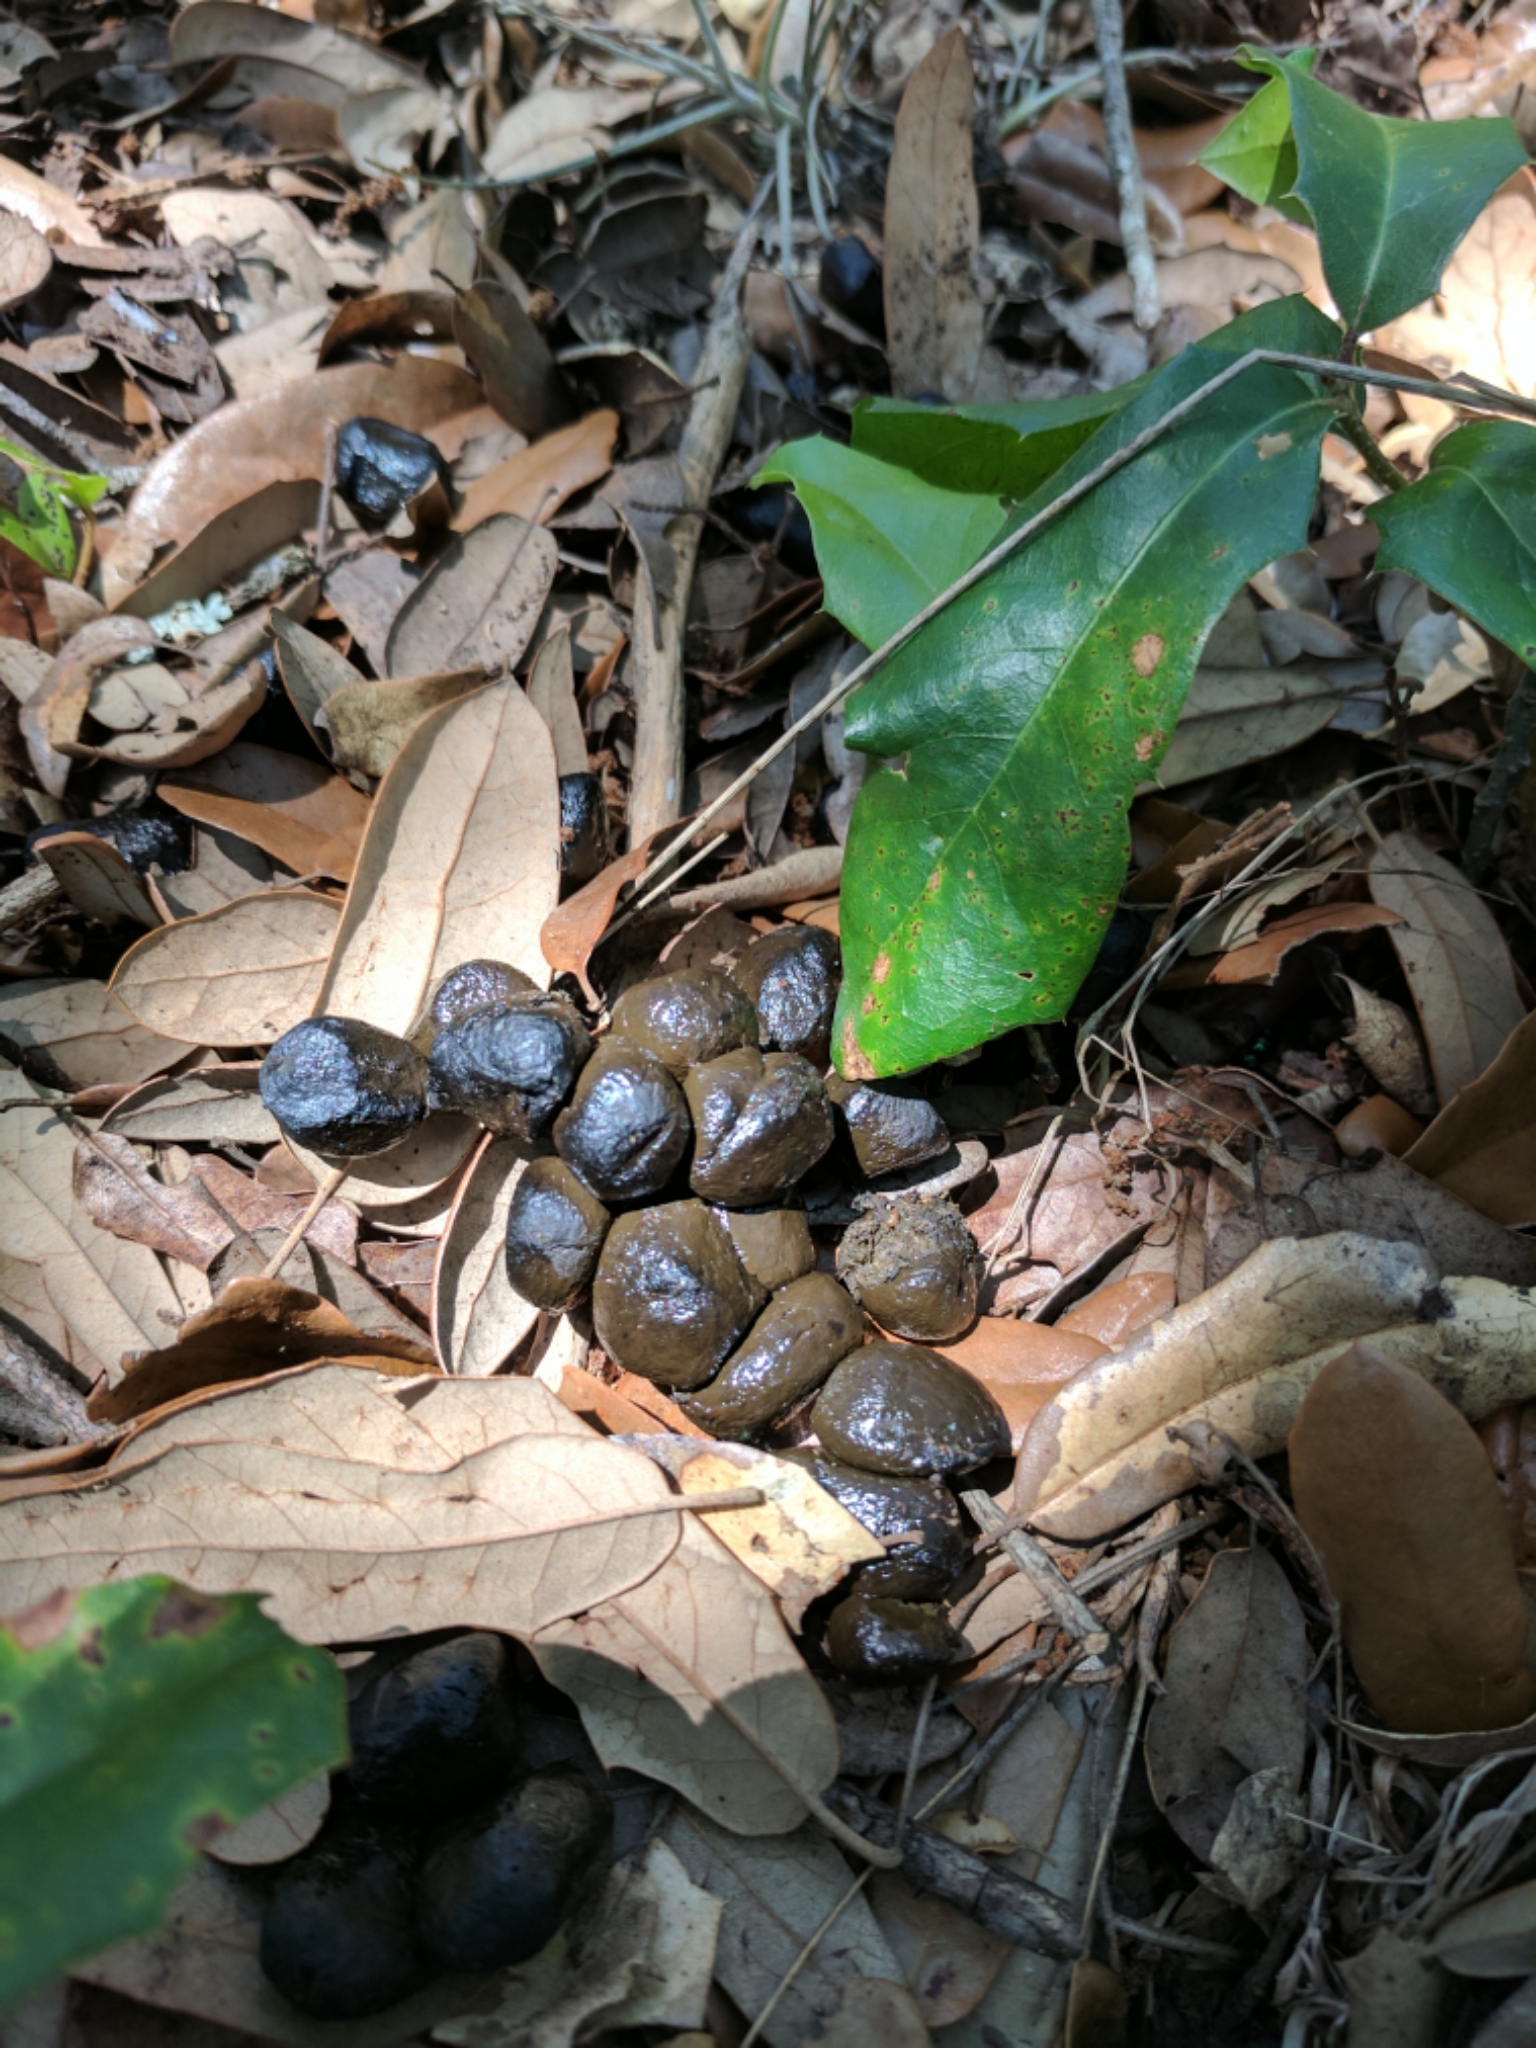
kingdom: Animalia
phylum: Chordata
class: Mammalia
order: Artiodactyla
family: Cervidae
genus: Odocoileus
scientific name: Odocoileus virginianus
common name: White-tailed deer
